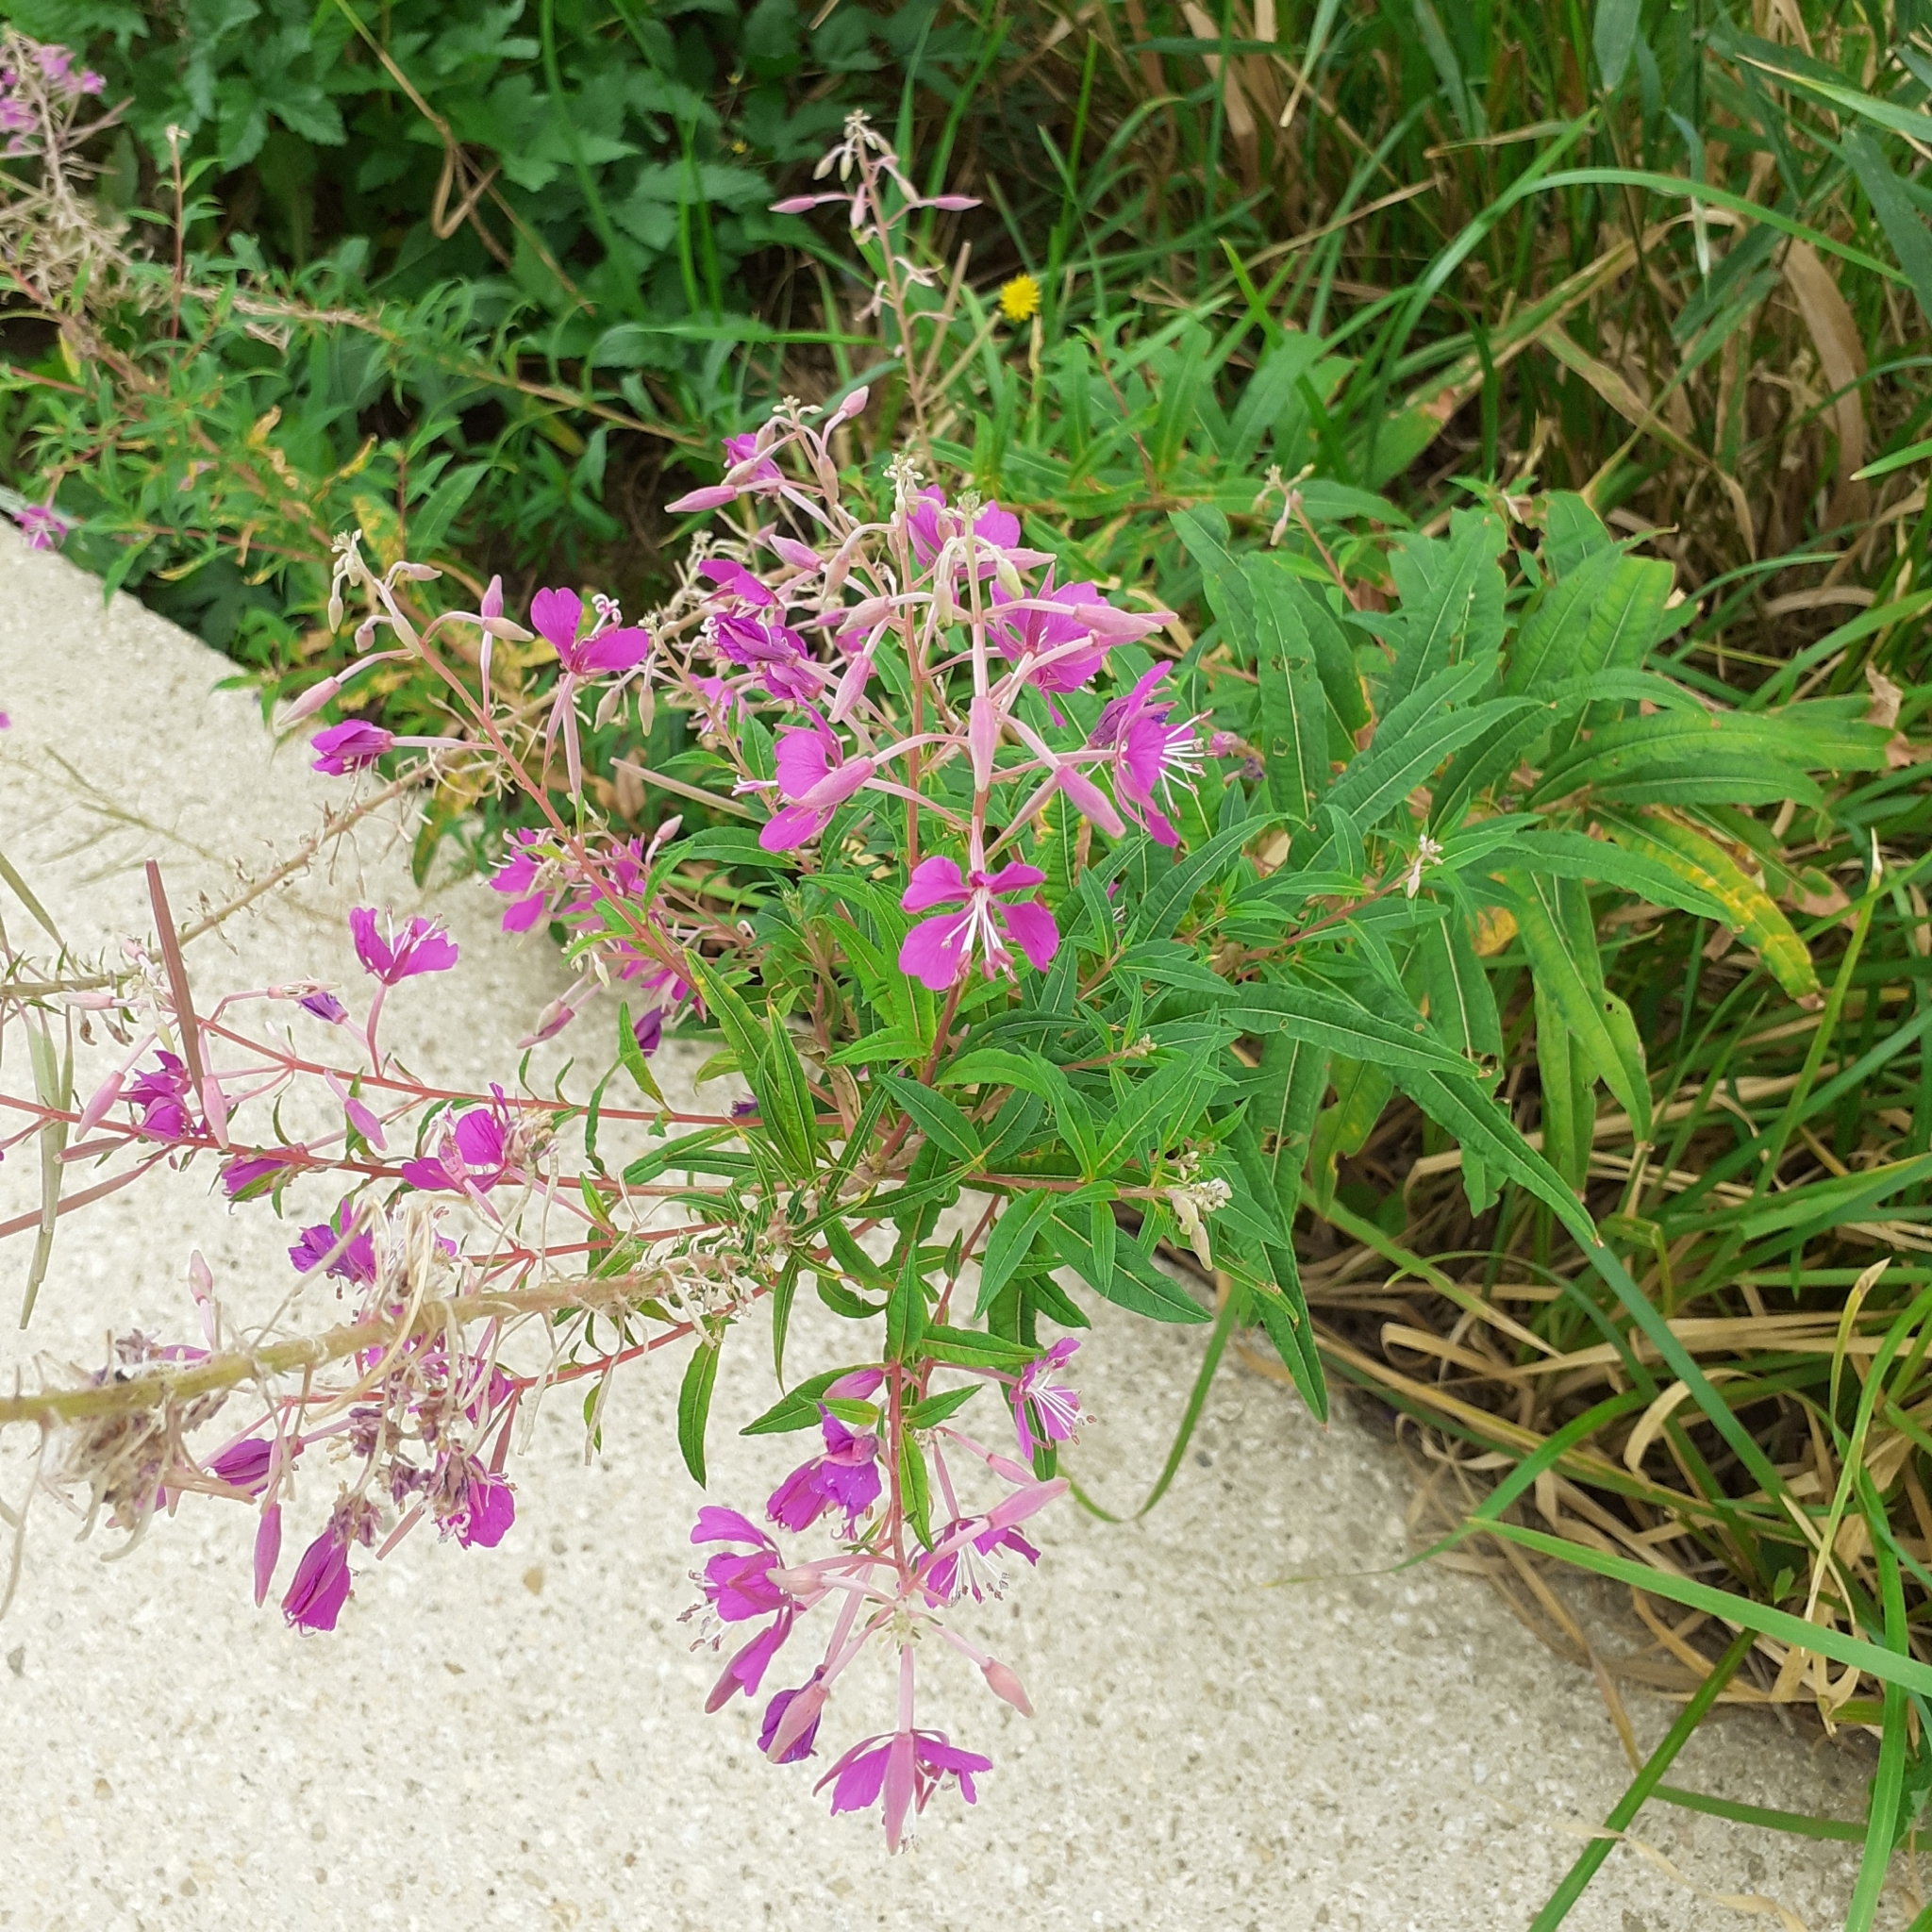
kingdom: Plantae
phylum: Tracheophyta
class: Magnoliopsida
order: Myrtales
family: Onagraceae
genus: Chamaenerion
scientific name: Chamaenerion angustifolium
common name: Fireweed
